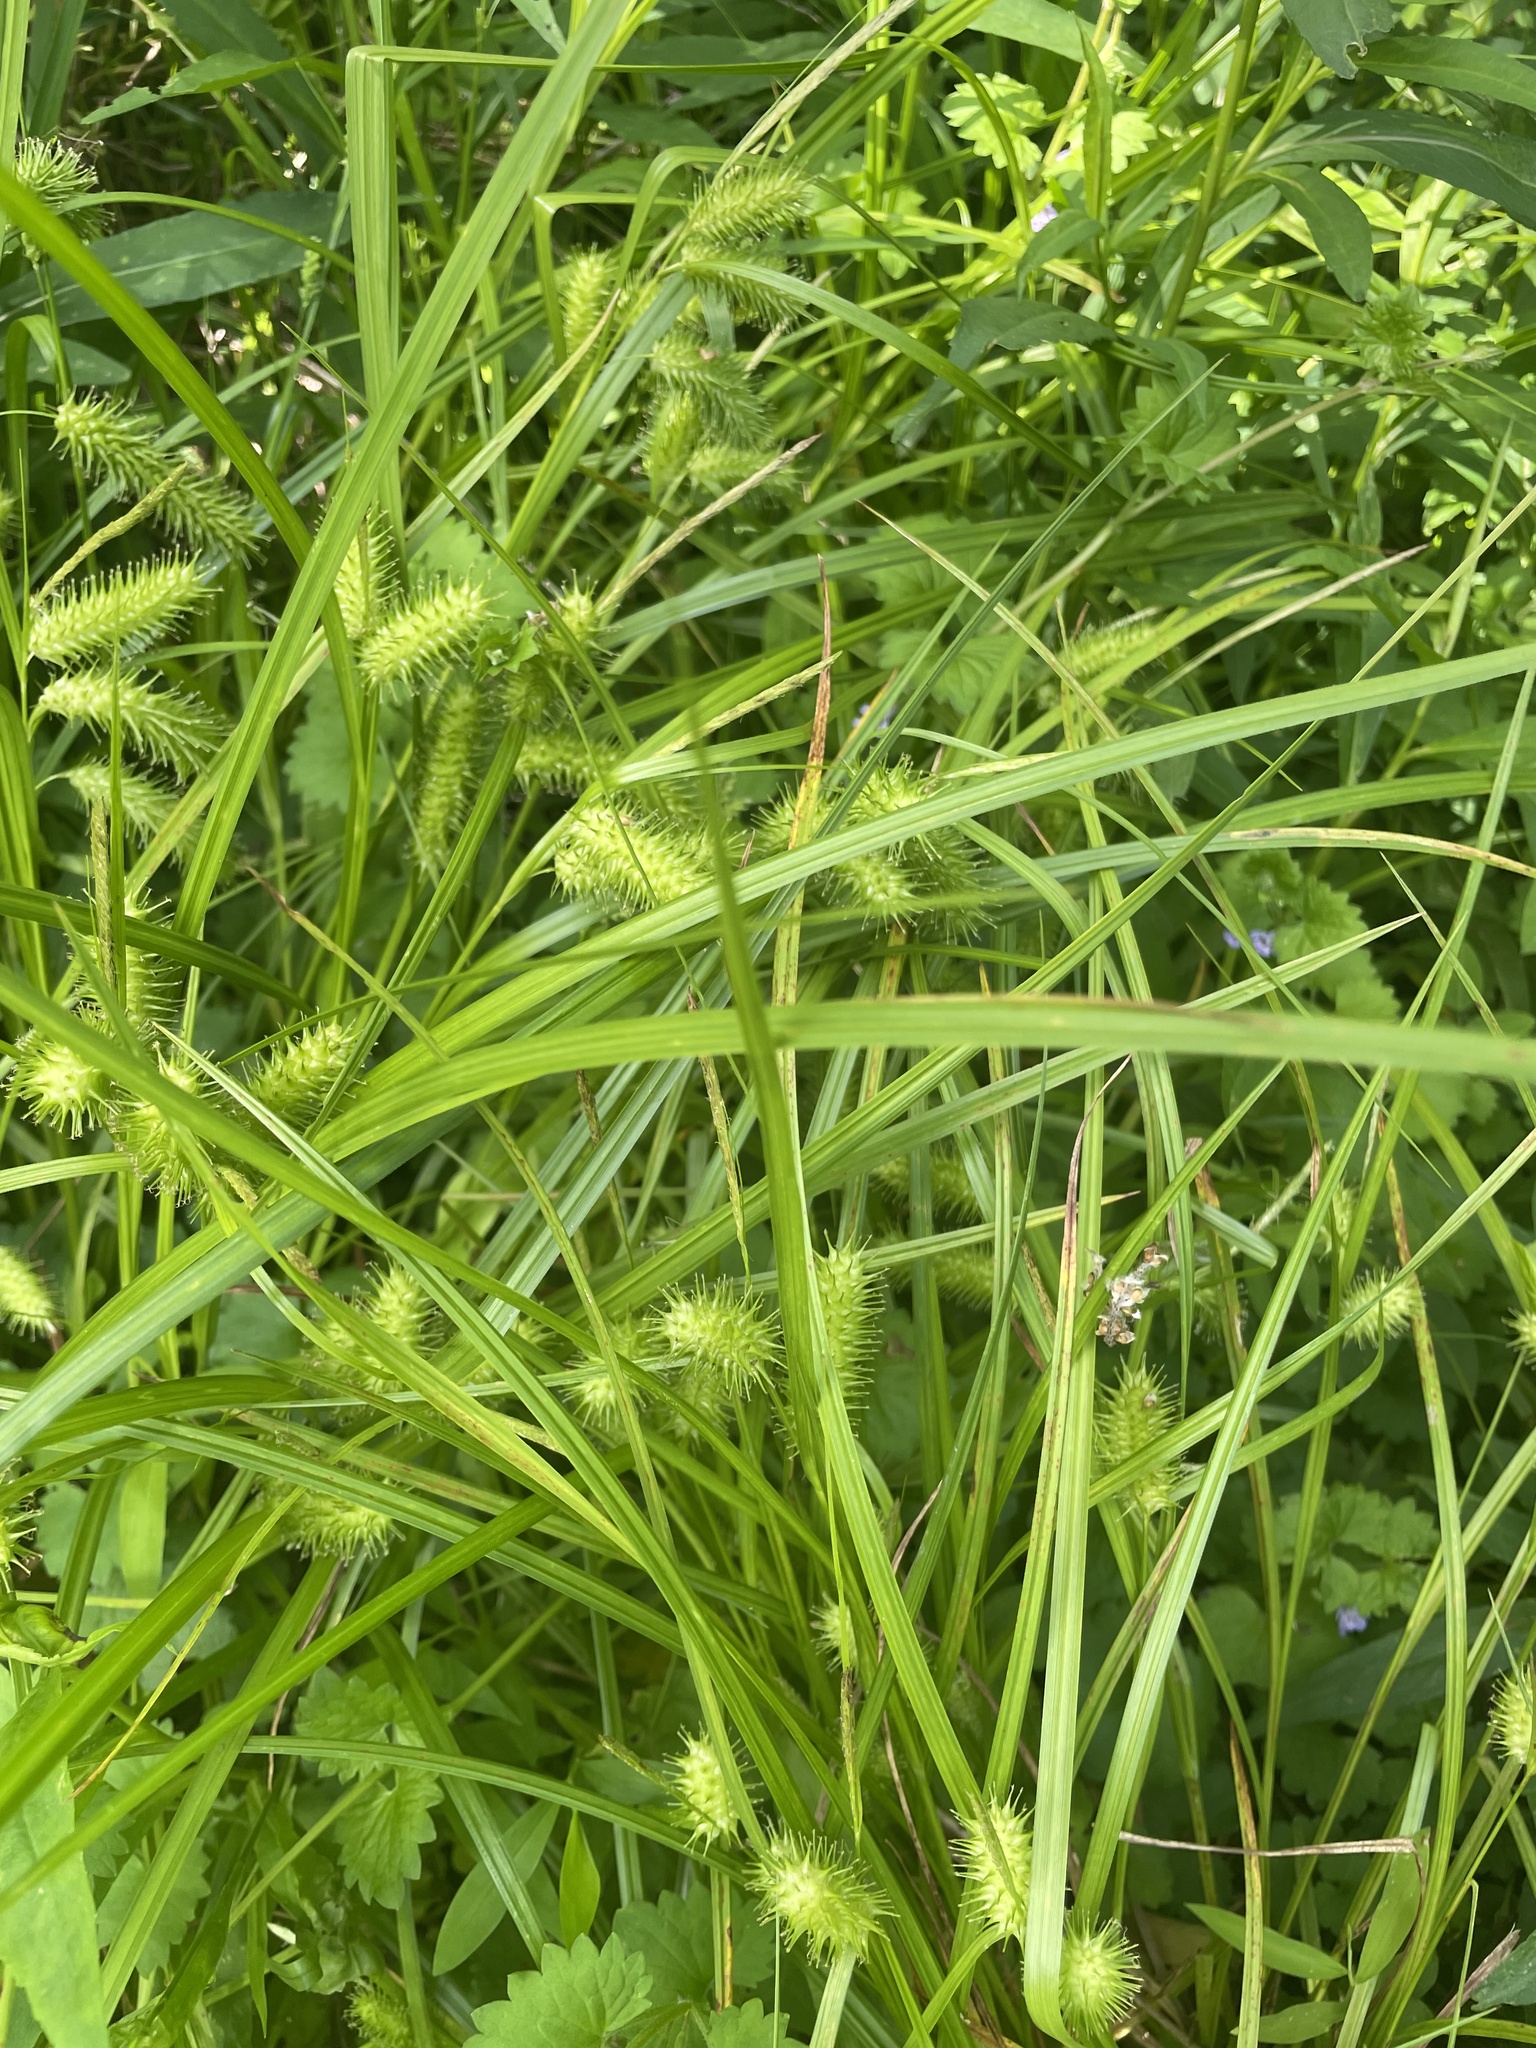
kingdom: Plantae
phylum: Tracheophyta
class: Liliopsida
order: Poales
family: Cyperaceae
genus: Carex
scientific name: Carex lurida
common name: Sallow sedge
